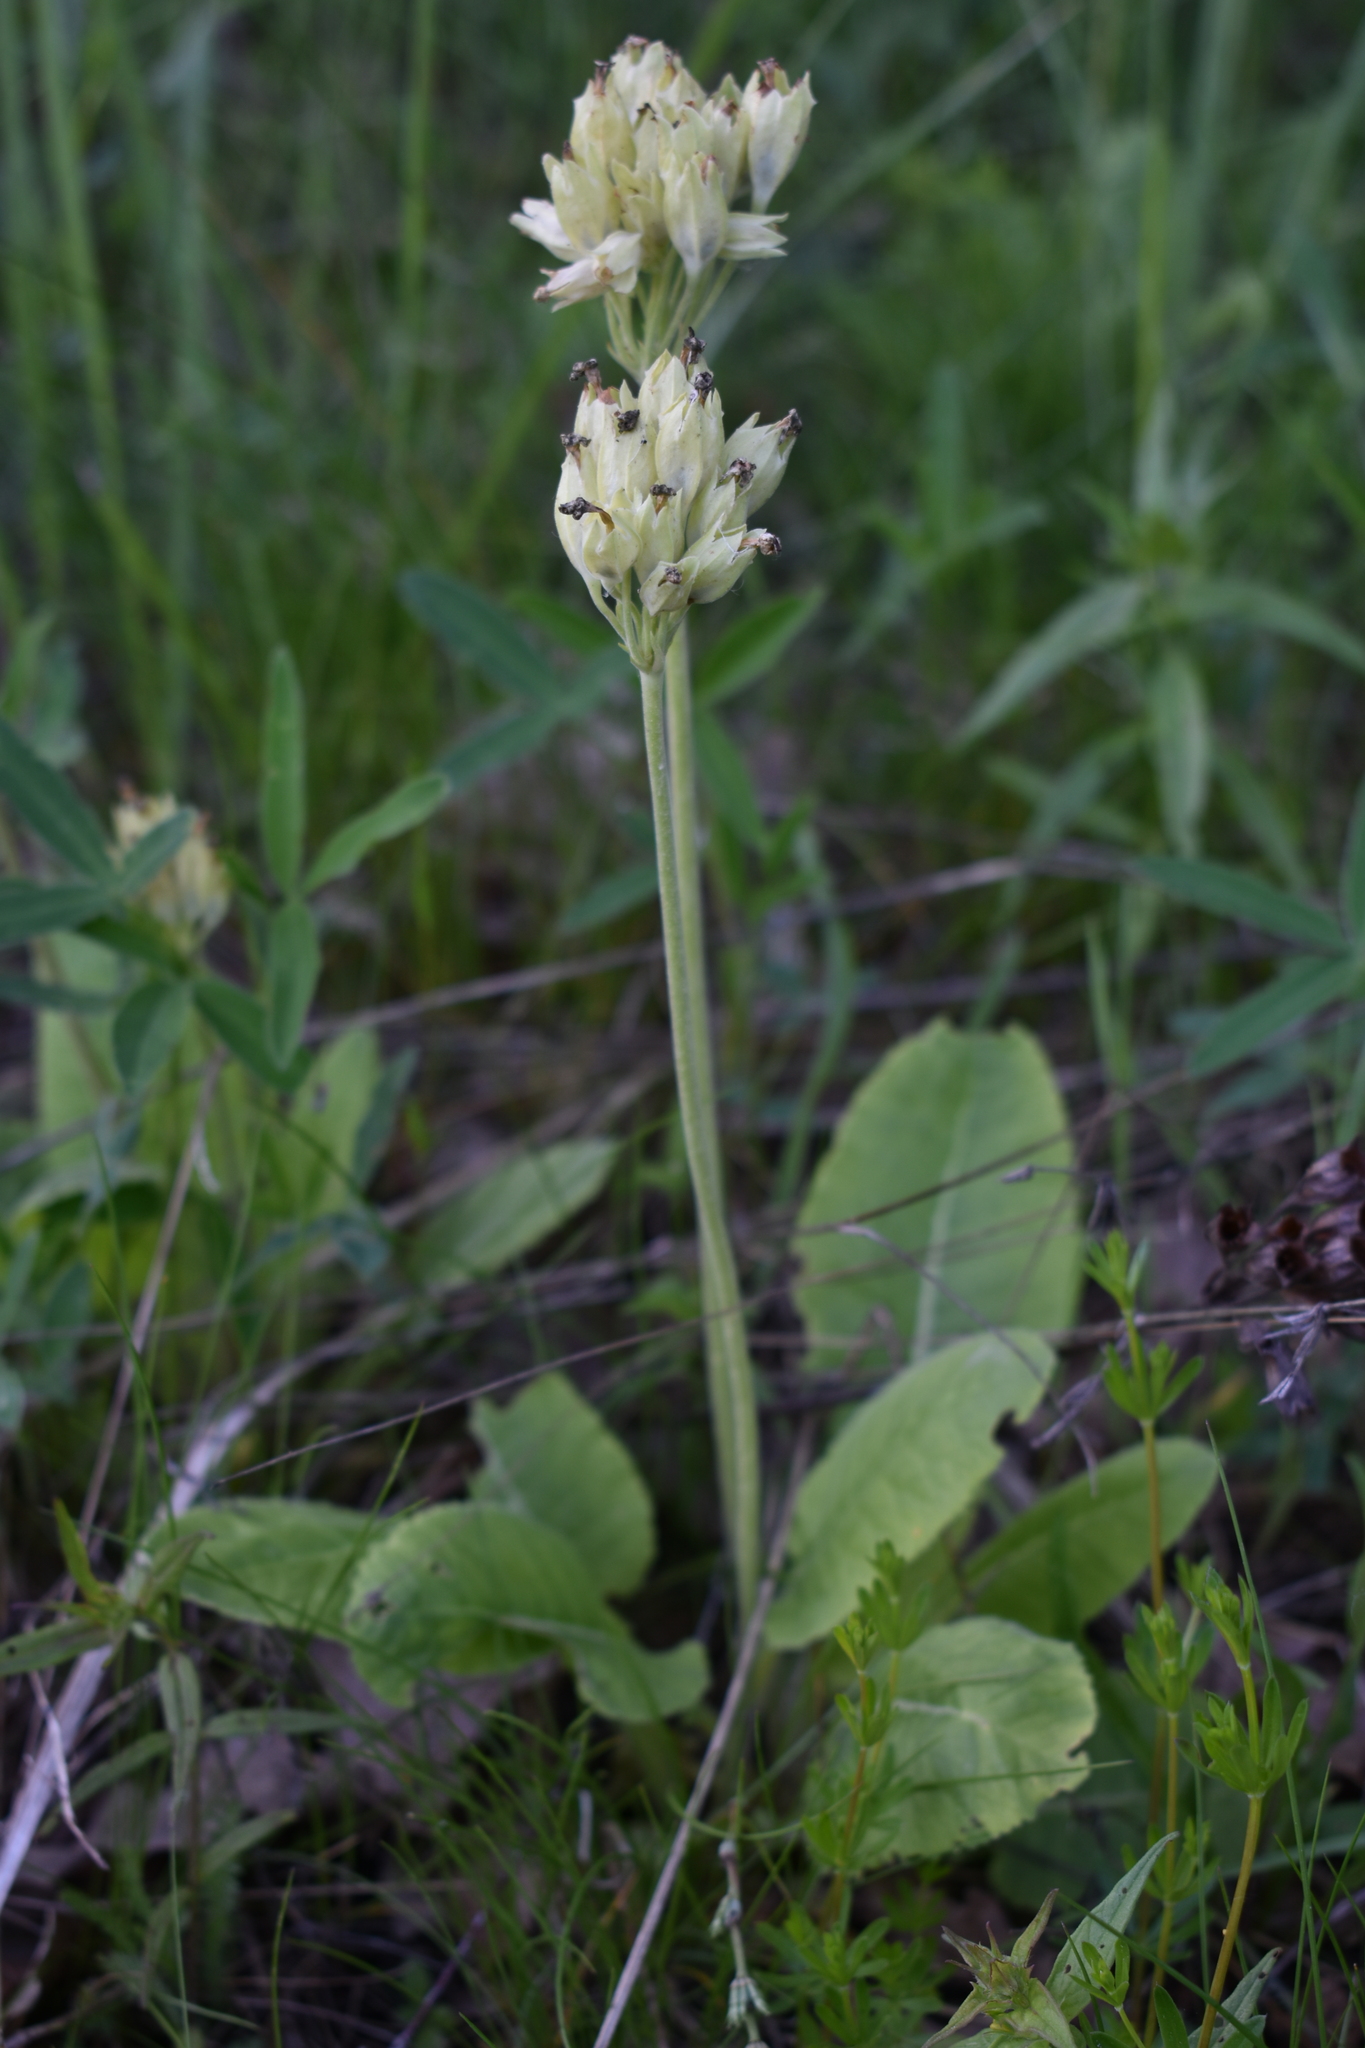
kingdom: Plantae
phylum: Tracheophyta
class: Magnoliopsida
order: Ericales
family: Primulaceae
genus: Primula
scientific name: Primula veris
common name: Cowslip
